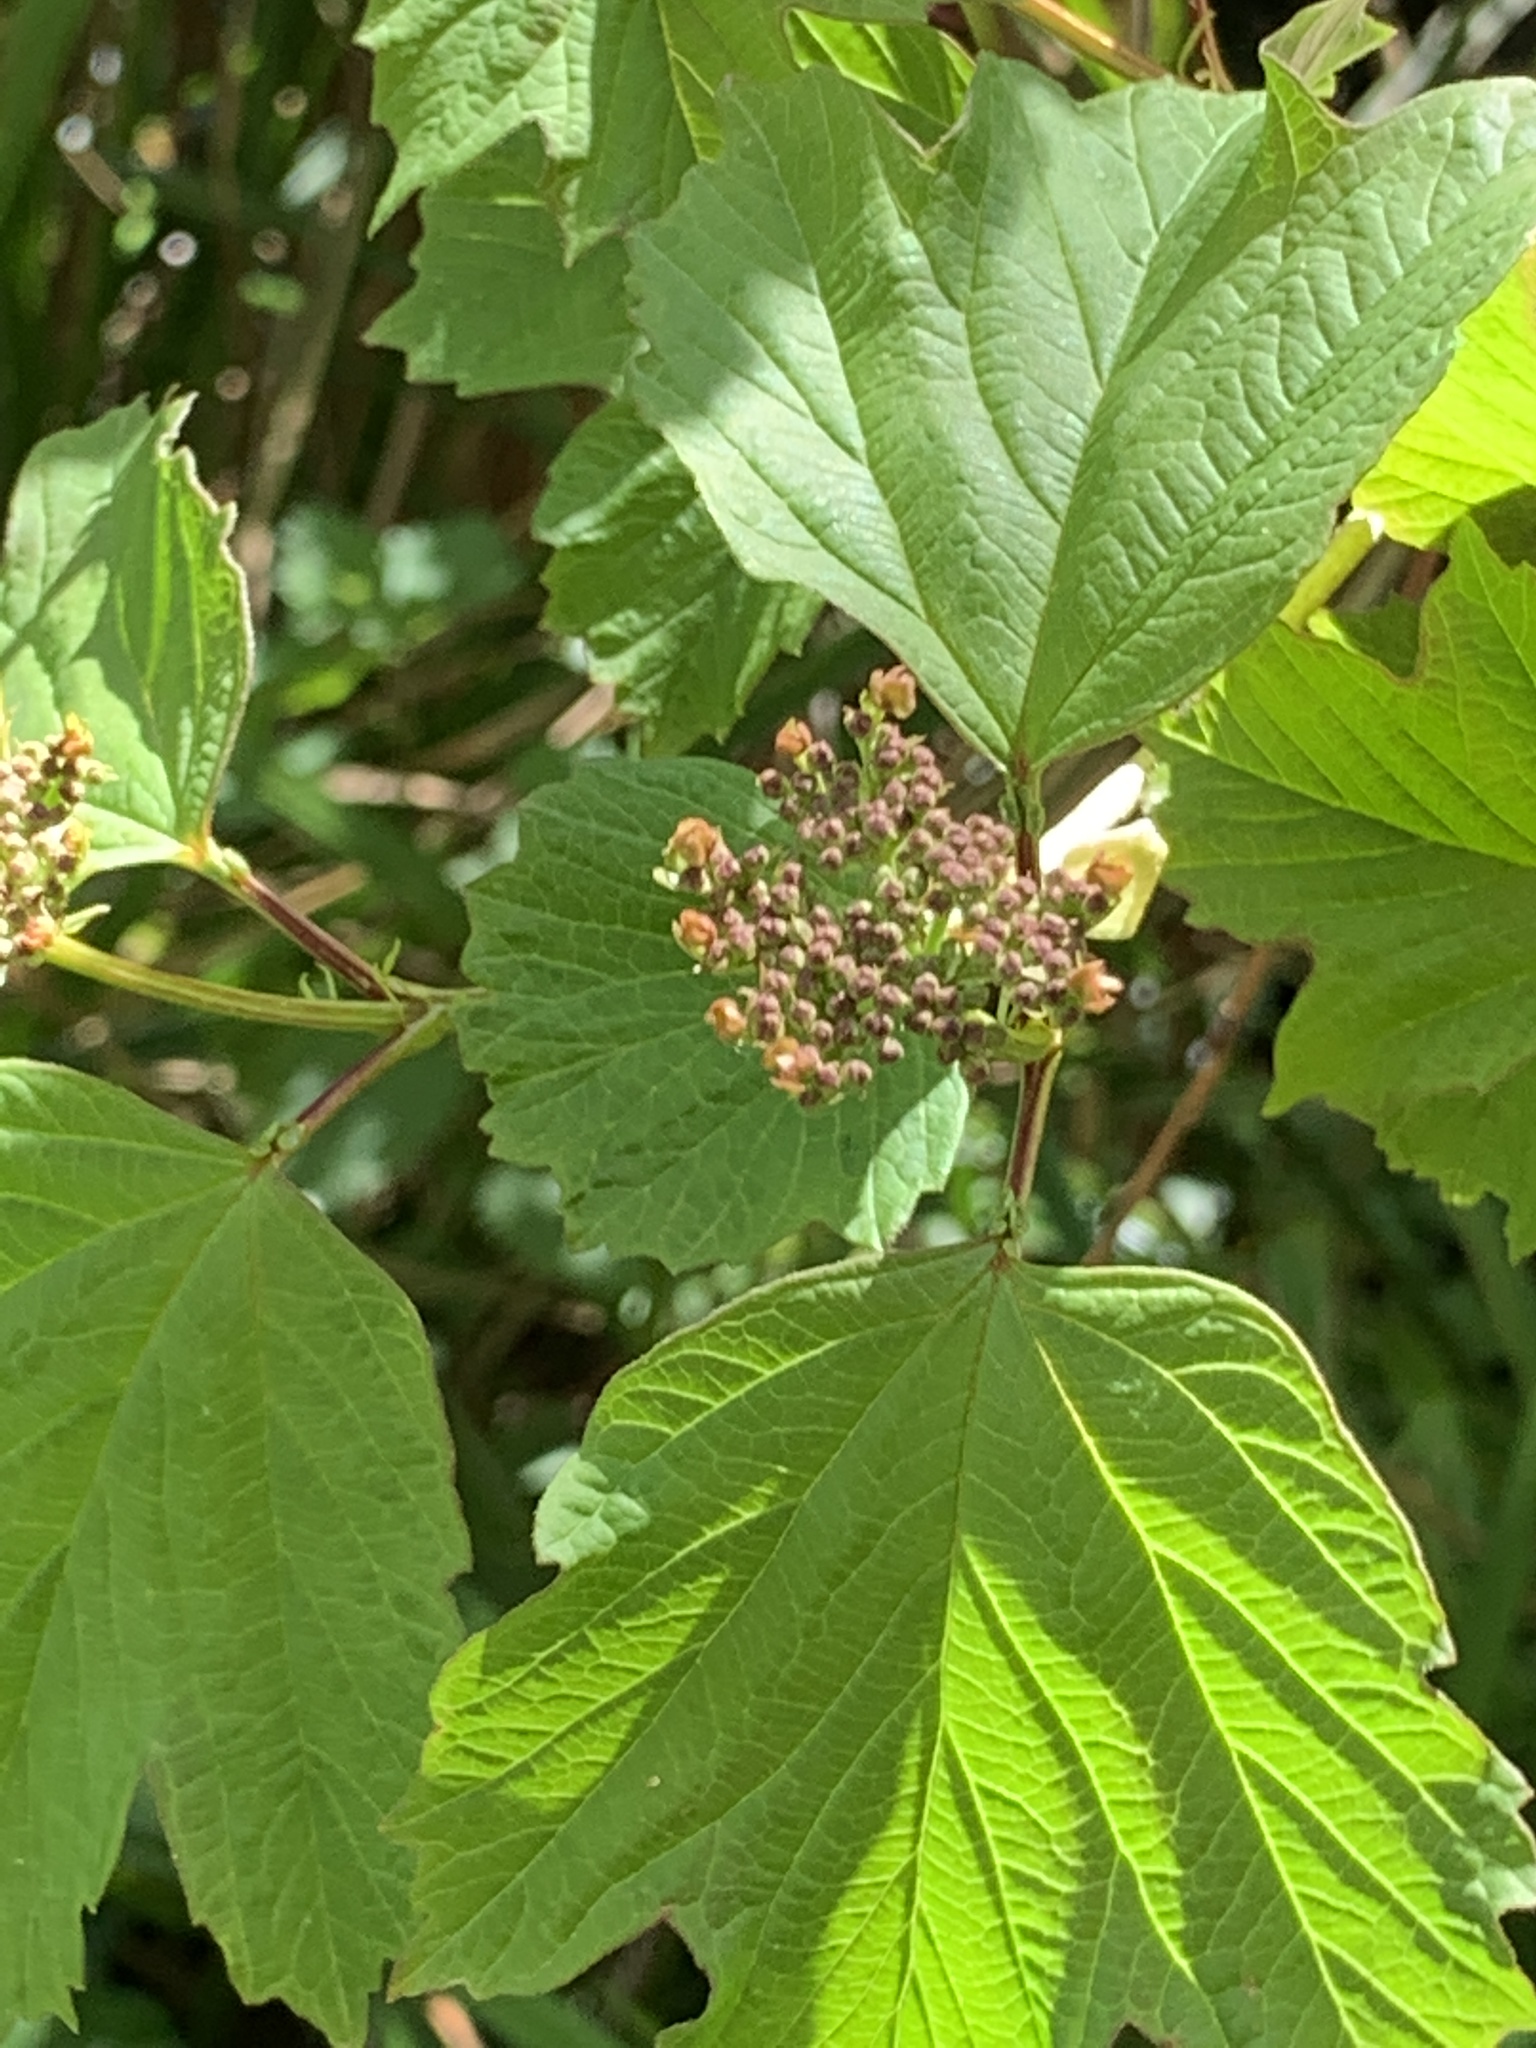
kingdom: Plantae
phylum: Tracheophyta
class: Magnoliopsida
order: Dipsacales
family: Viburnaceae
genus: Viburnum
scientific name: Viburnum opulus
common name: Guelder-rose
